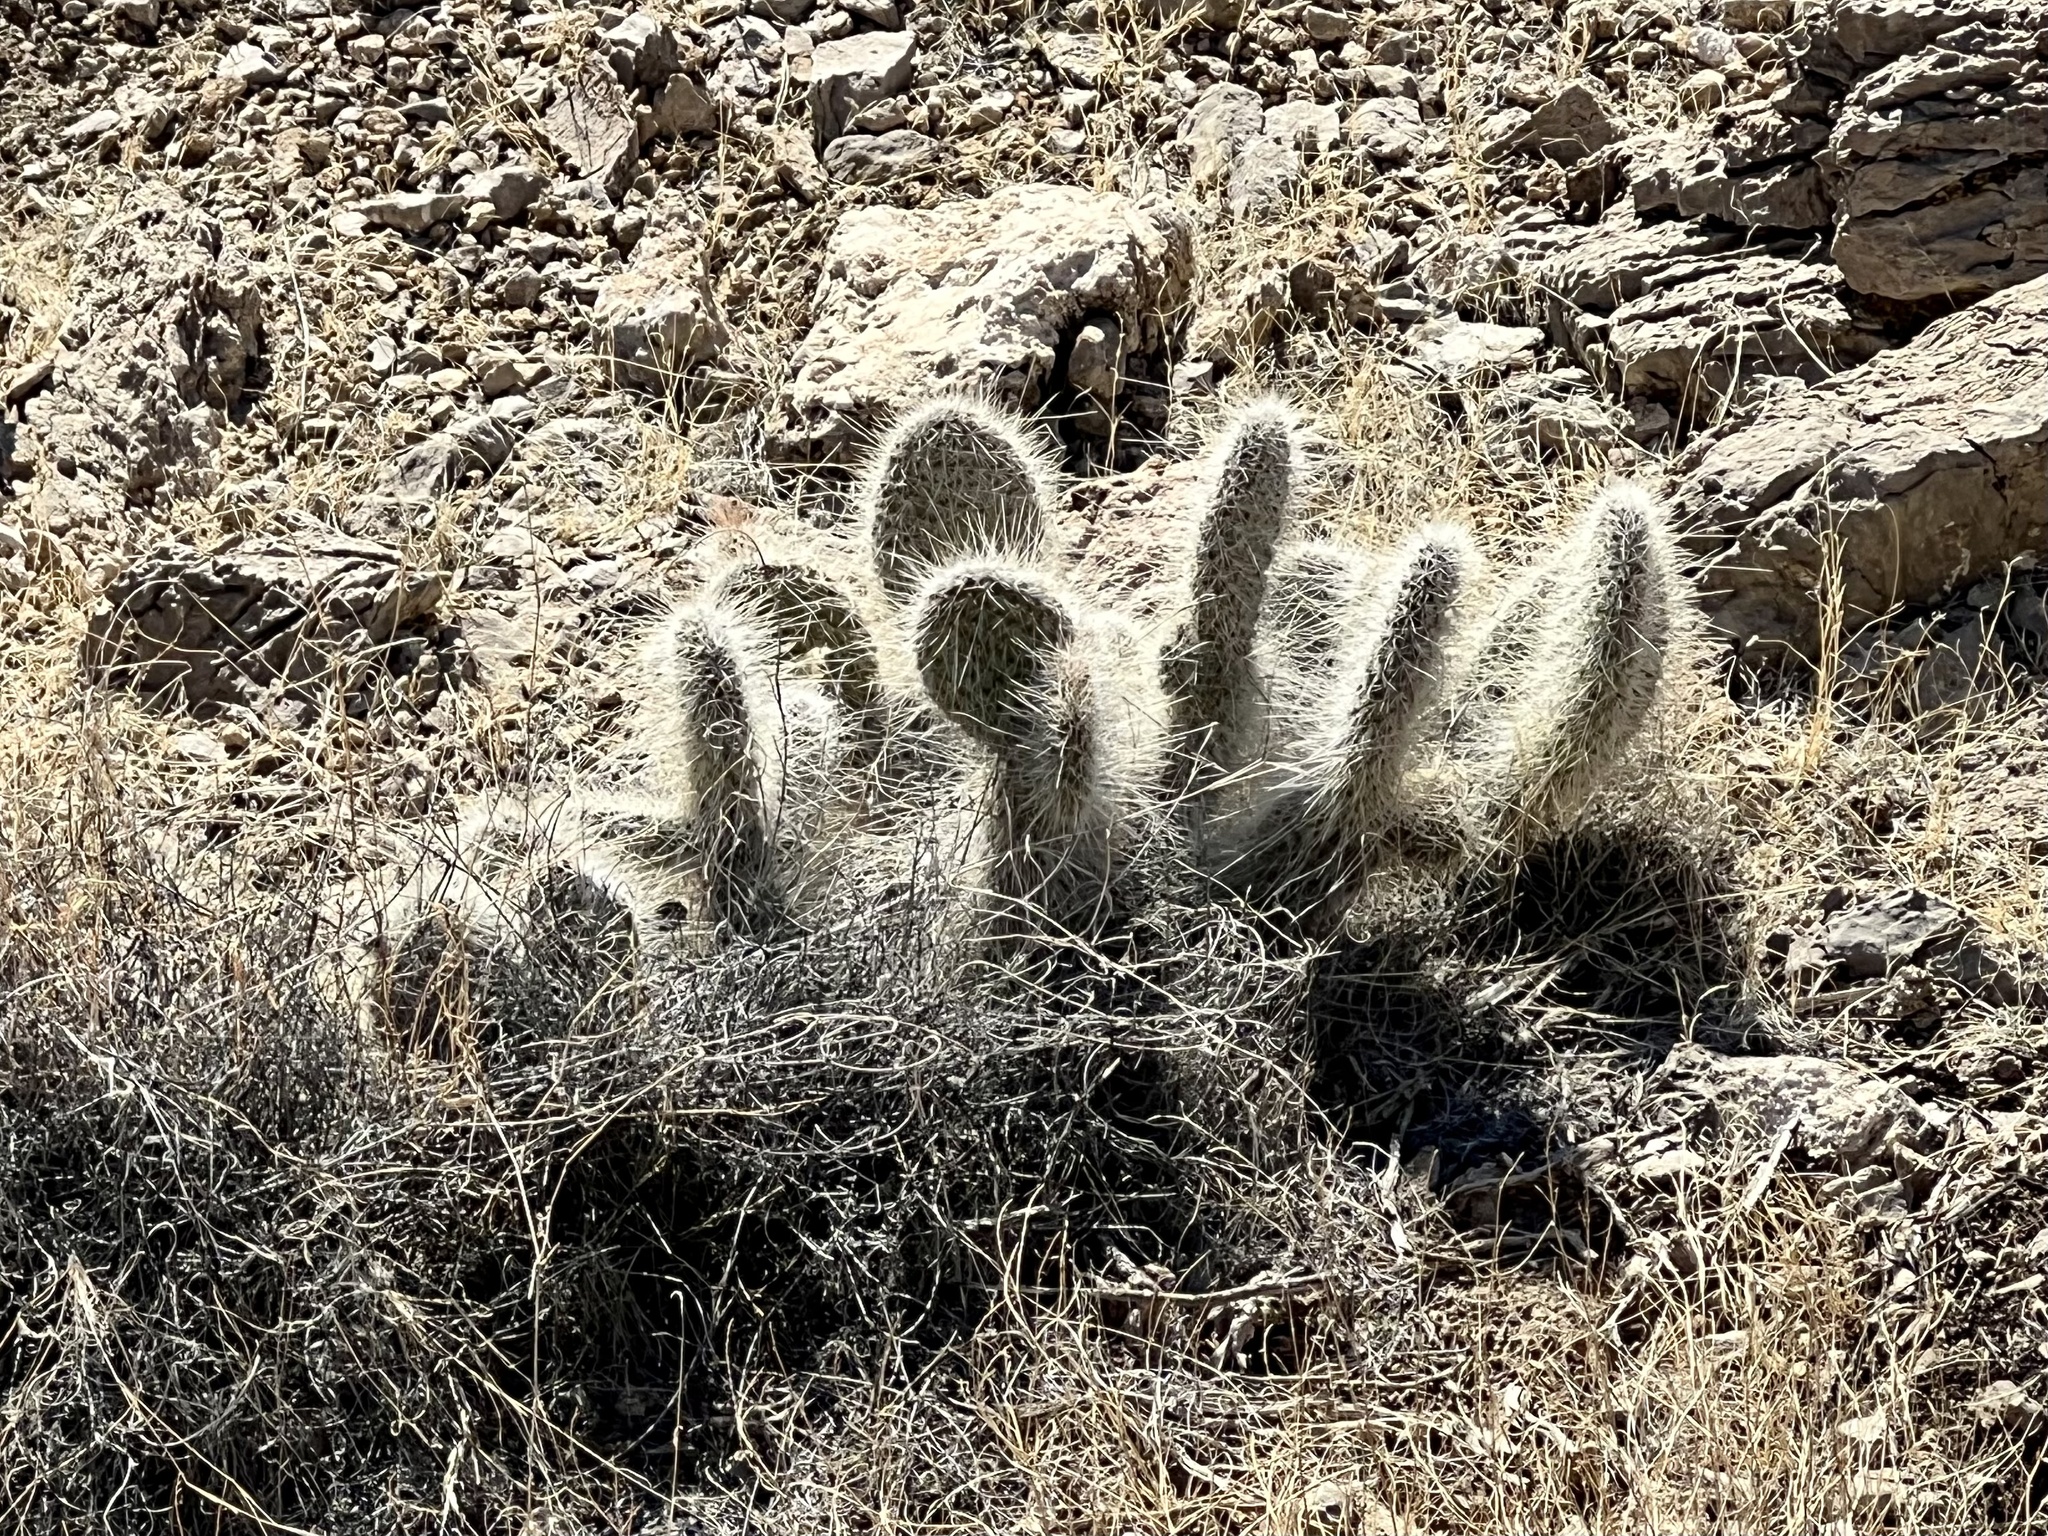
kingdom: Plantae
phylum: Tracheophyta
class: Magnoliopsida
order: Caryophyllales
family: Cactaceae
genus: Opuntia
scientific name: Opuntia polyacantha
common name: Plains prickly-pear
